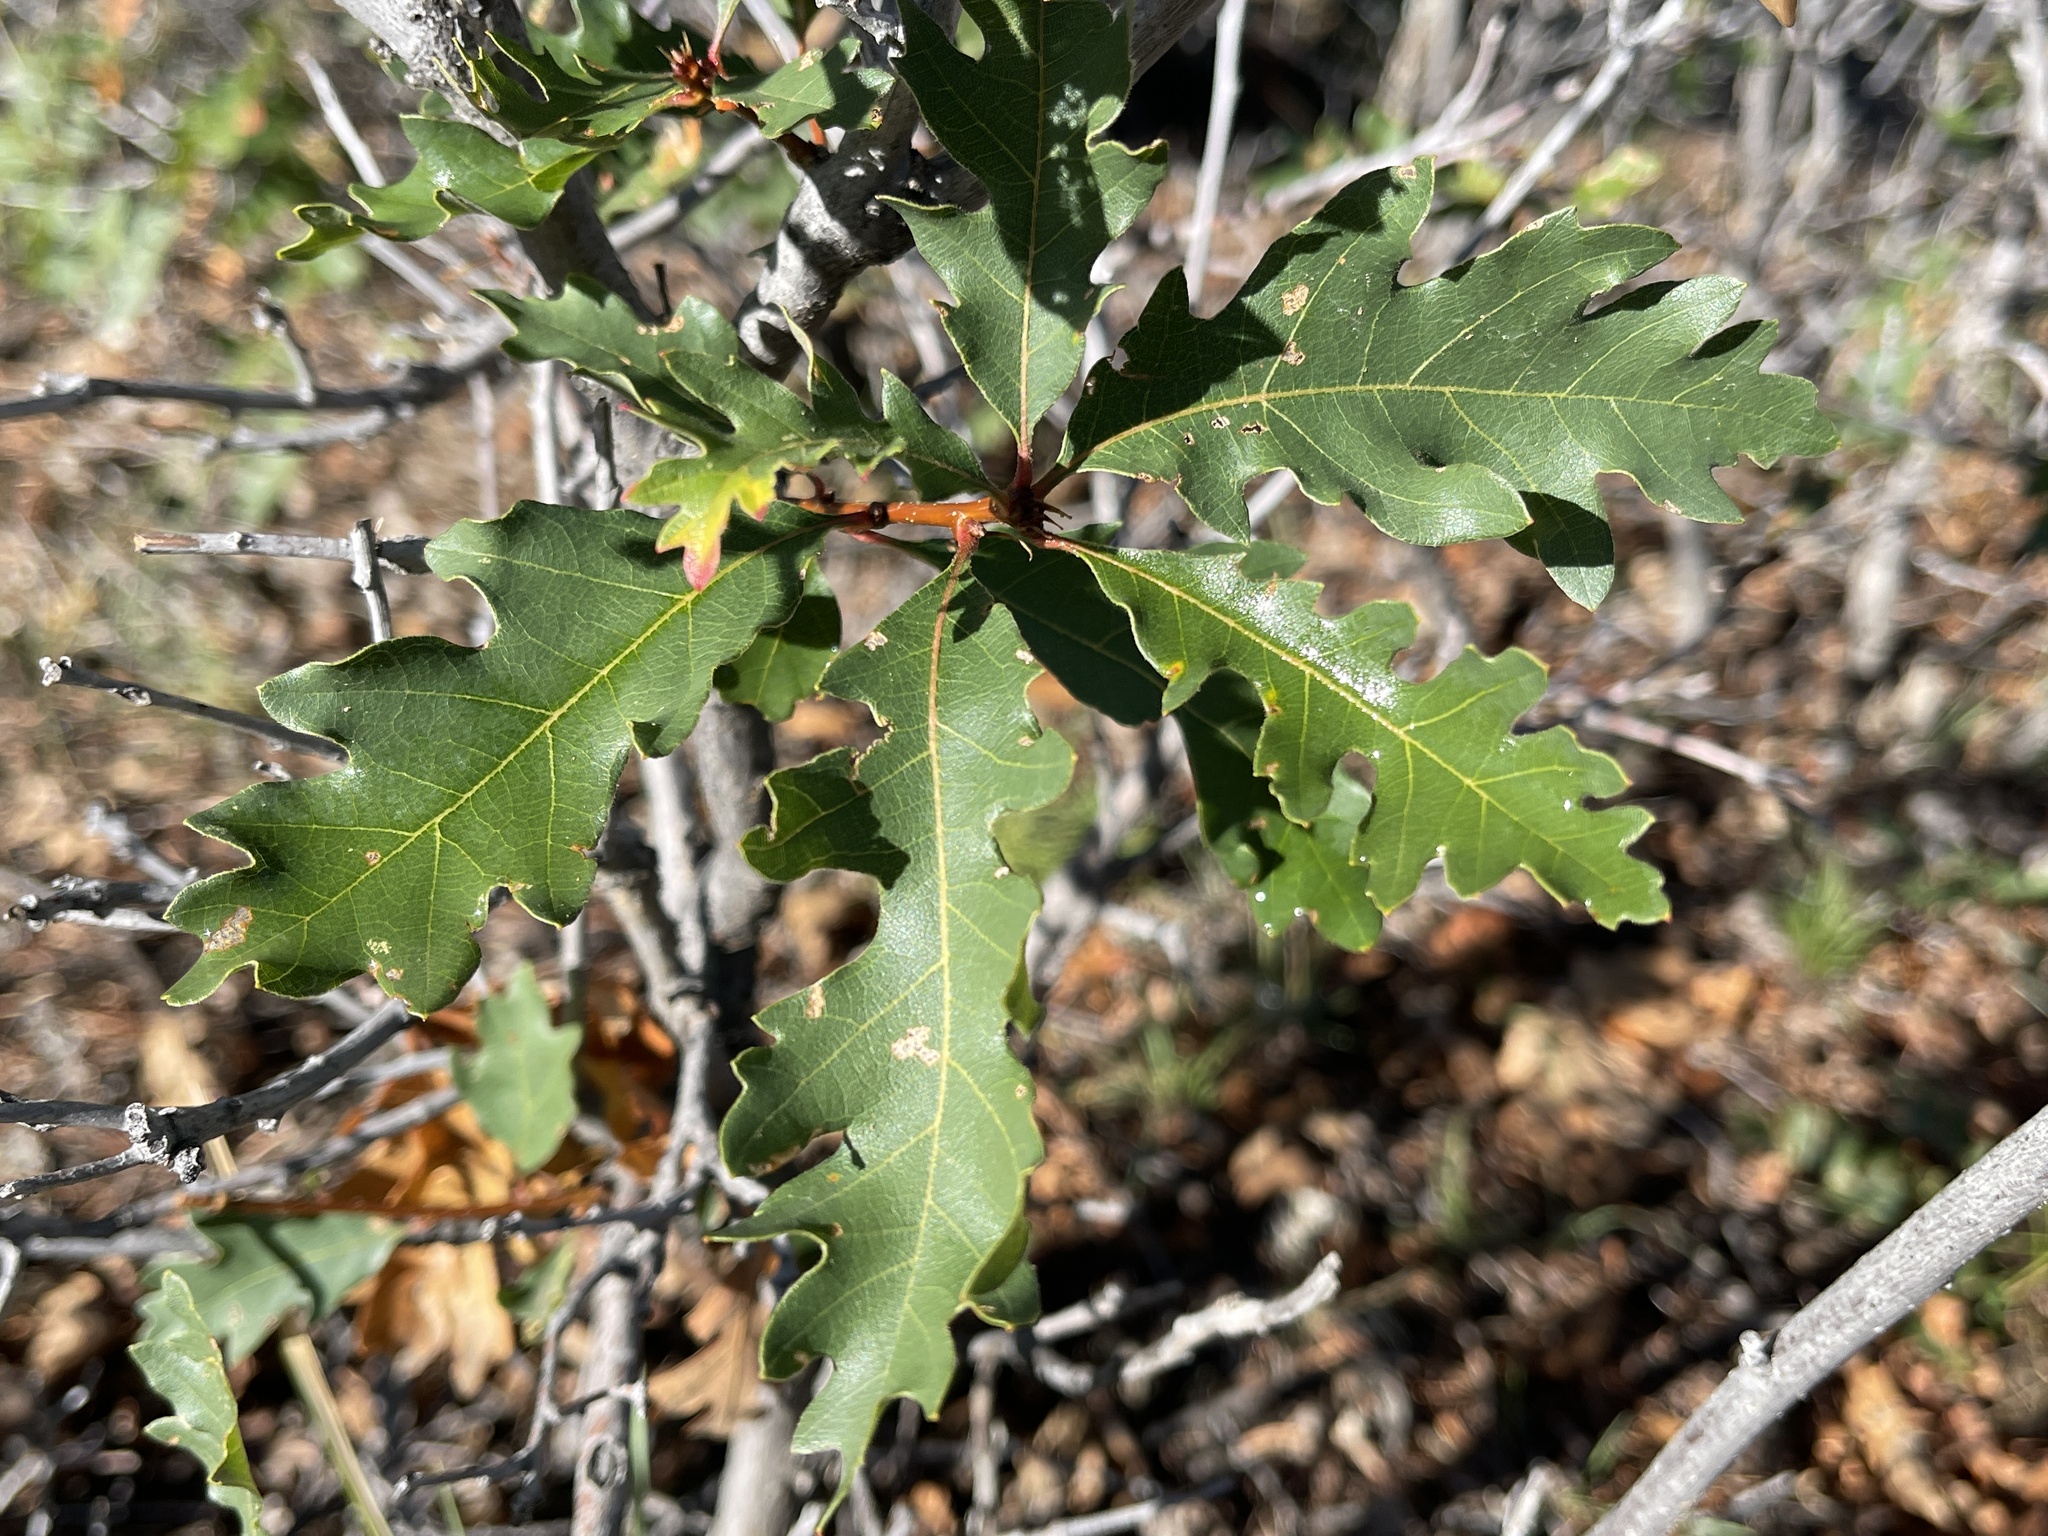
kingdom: Plantae
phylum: Tracheophyta
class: Magnoliopsida
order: Fagales
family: Fagaceae
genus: Quercus
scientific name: Quercus gambelii
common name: Gambel oak
